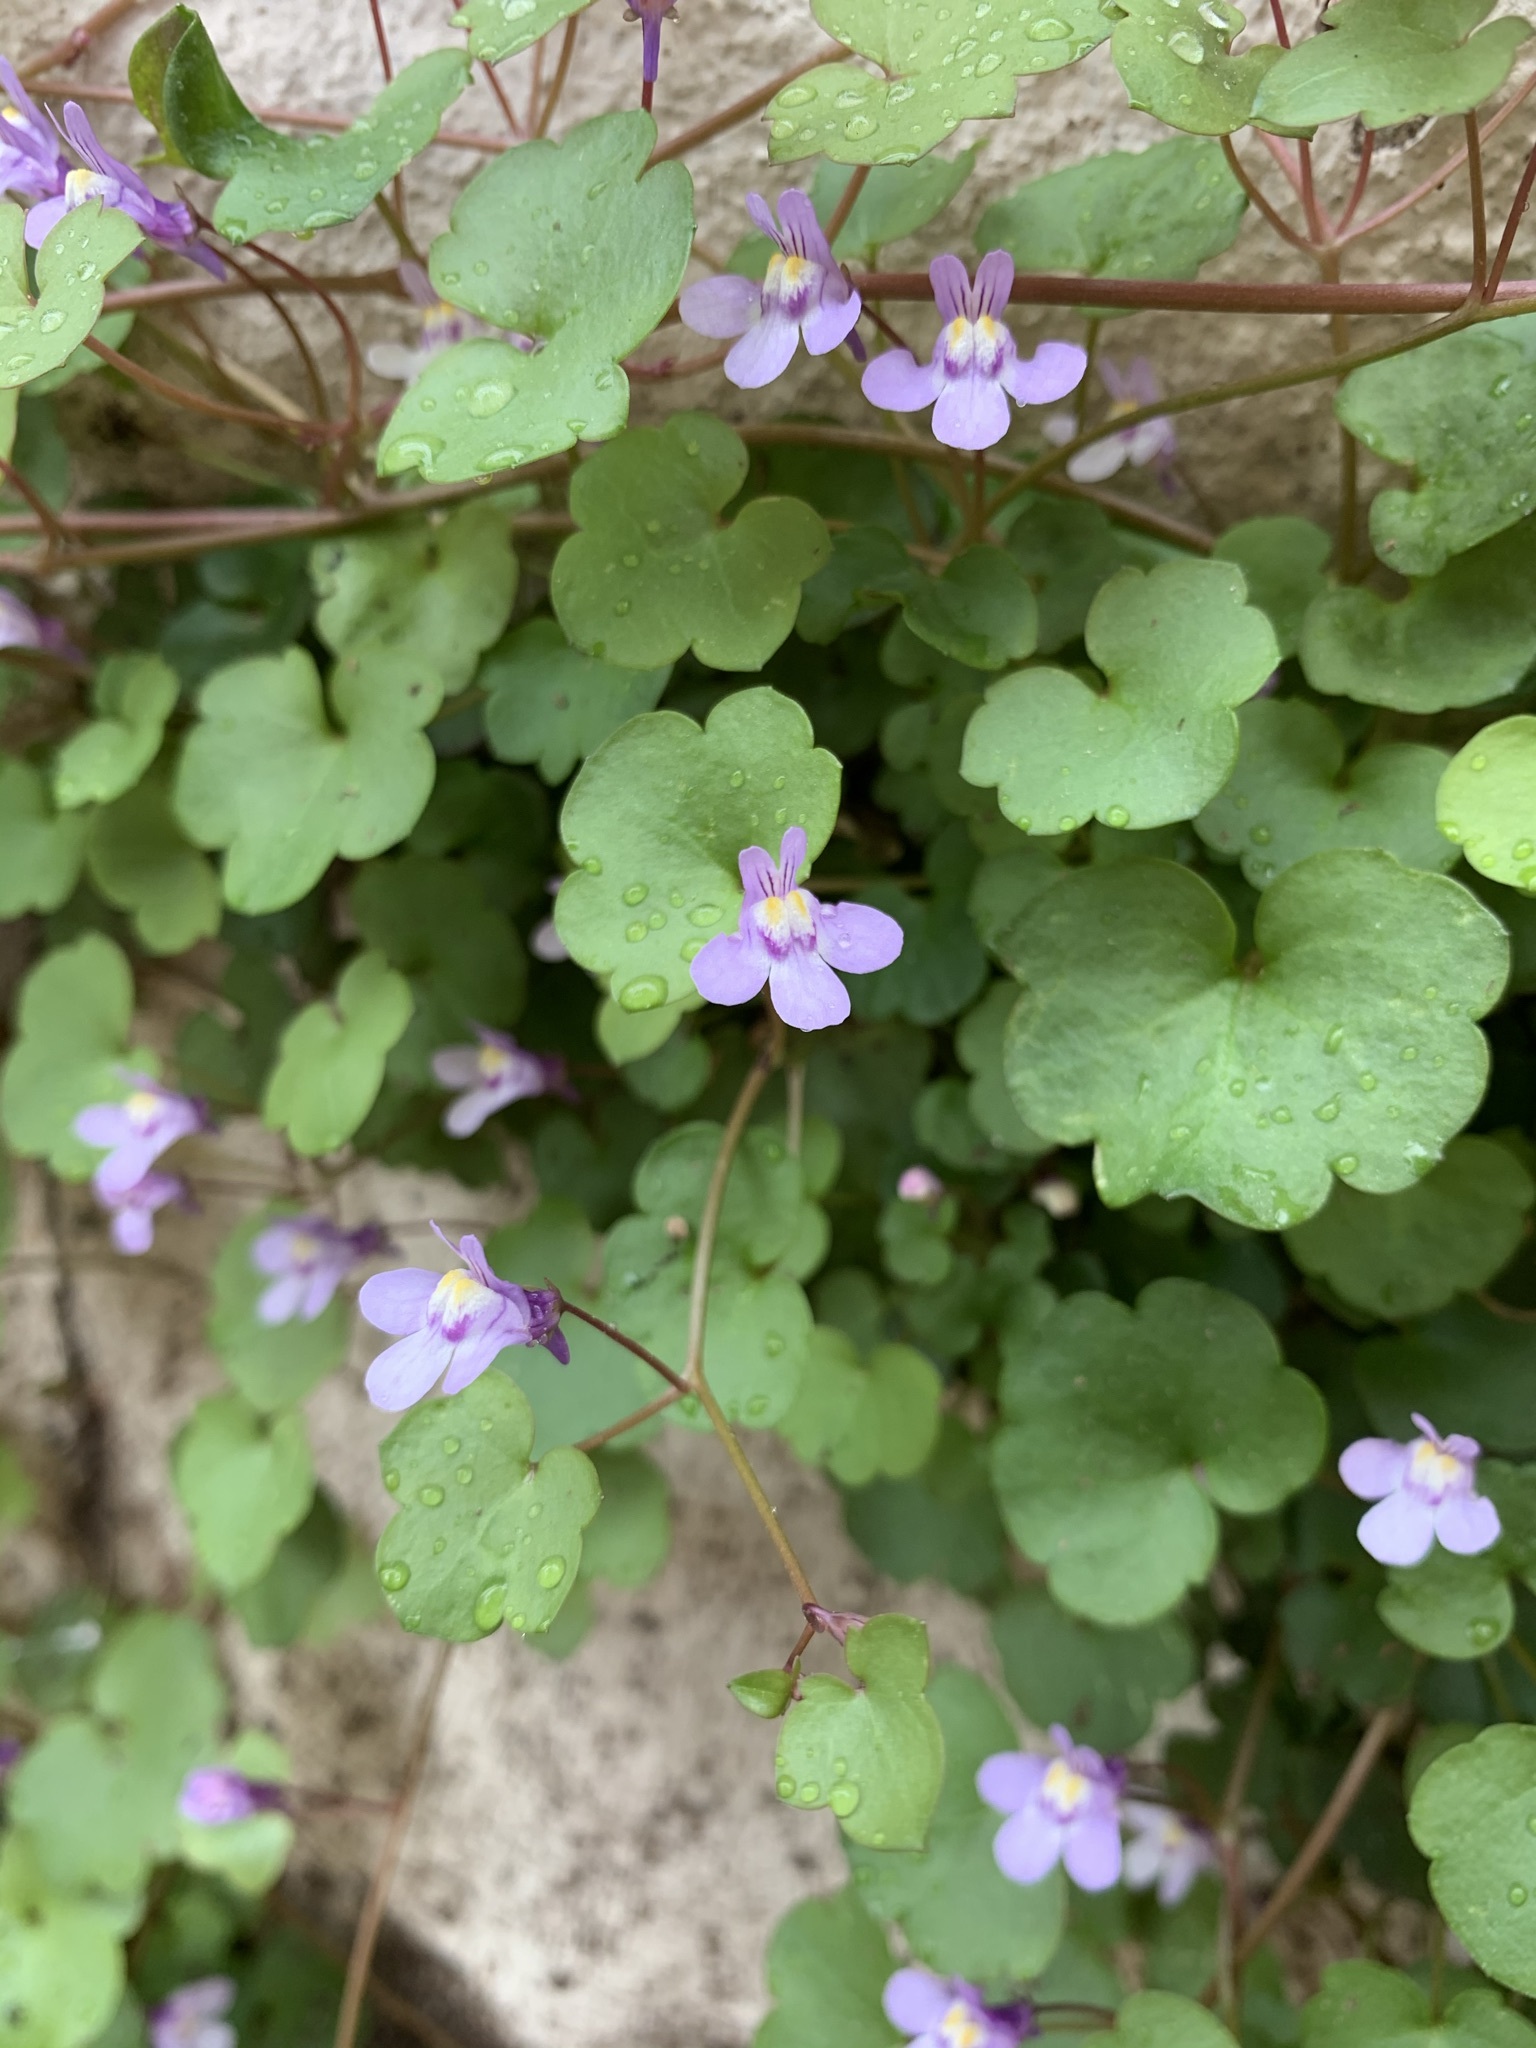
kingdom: Plantae
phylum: Tracheophyta
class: Magnoliopsida
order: Lamiales
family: Plantaginaceae
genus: Cymbalaria
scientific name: Cymbalaria muralis
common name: Ivy-leaved toadflax
